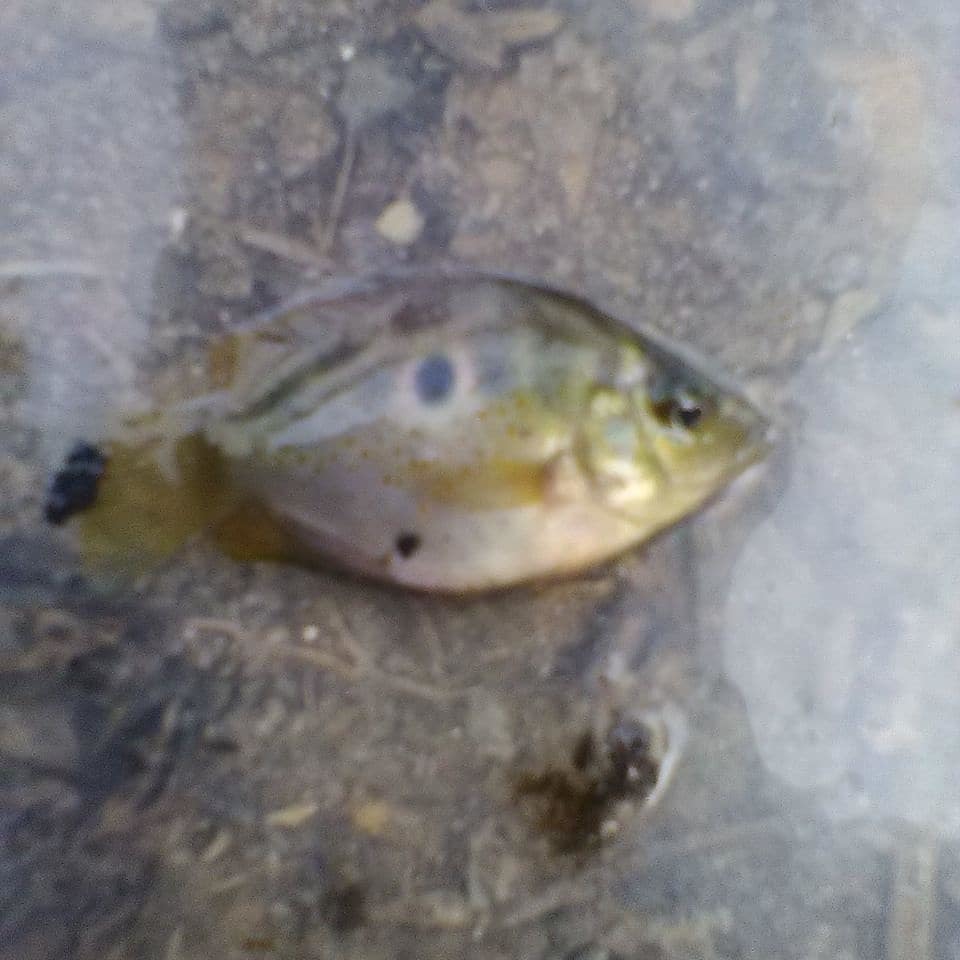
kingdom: Animalia
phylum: Chordata
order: Perciformes
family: Cichlidae
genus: Etroplus
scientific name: Etroplus maculatus
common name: Orange chromide
